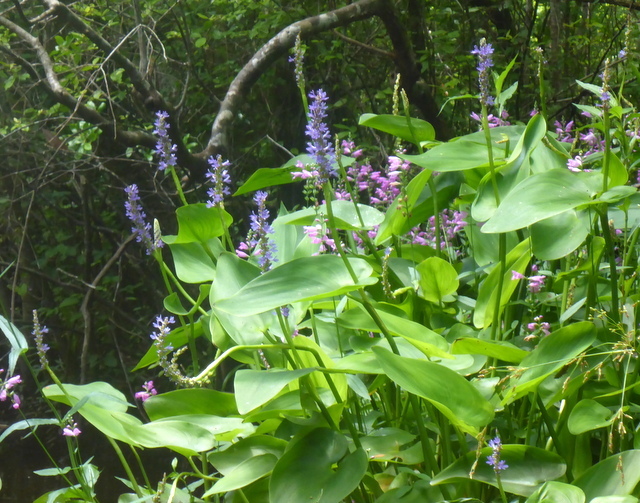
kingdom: Plantae
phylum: Tracheophyta
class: Liliopsida
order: Commelinales
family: Pontederiaceae
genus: Pontederia
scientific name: Pontederia cordata
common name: Pickerelweed
